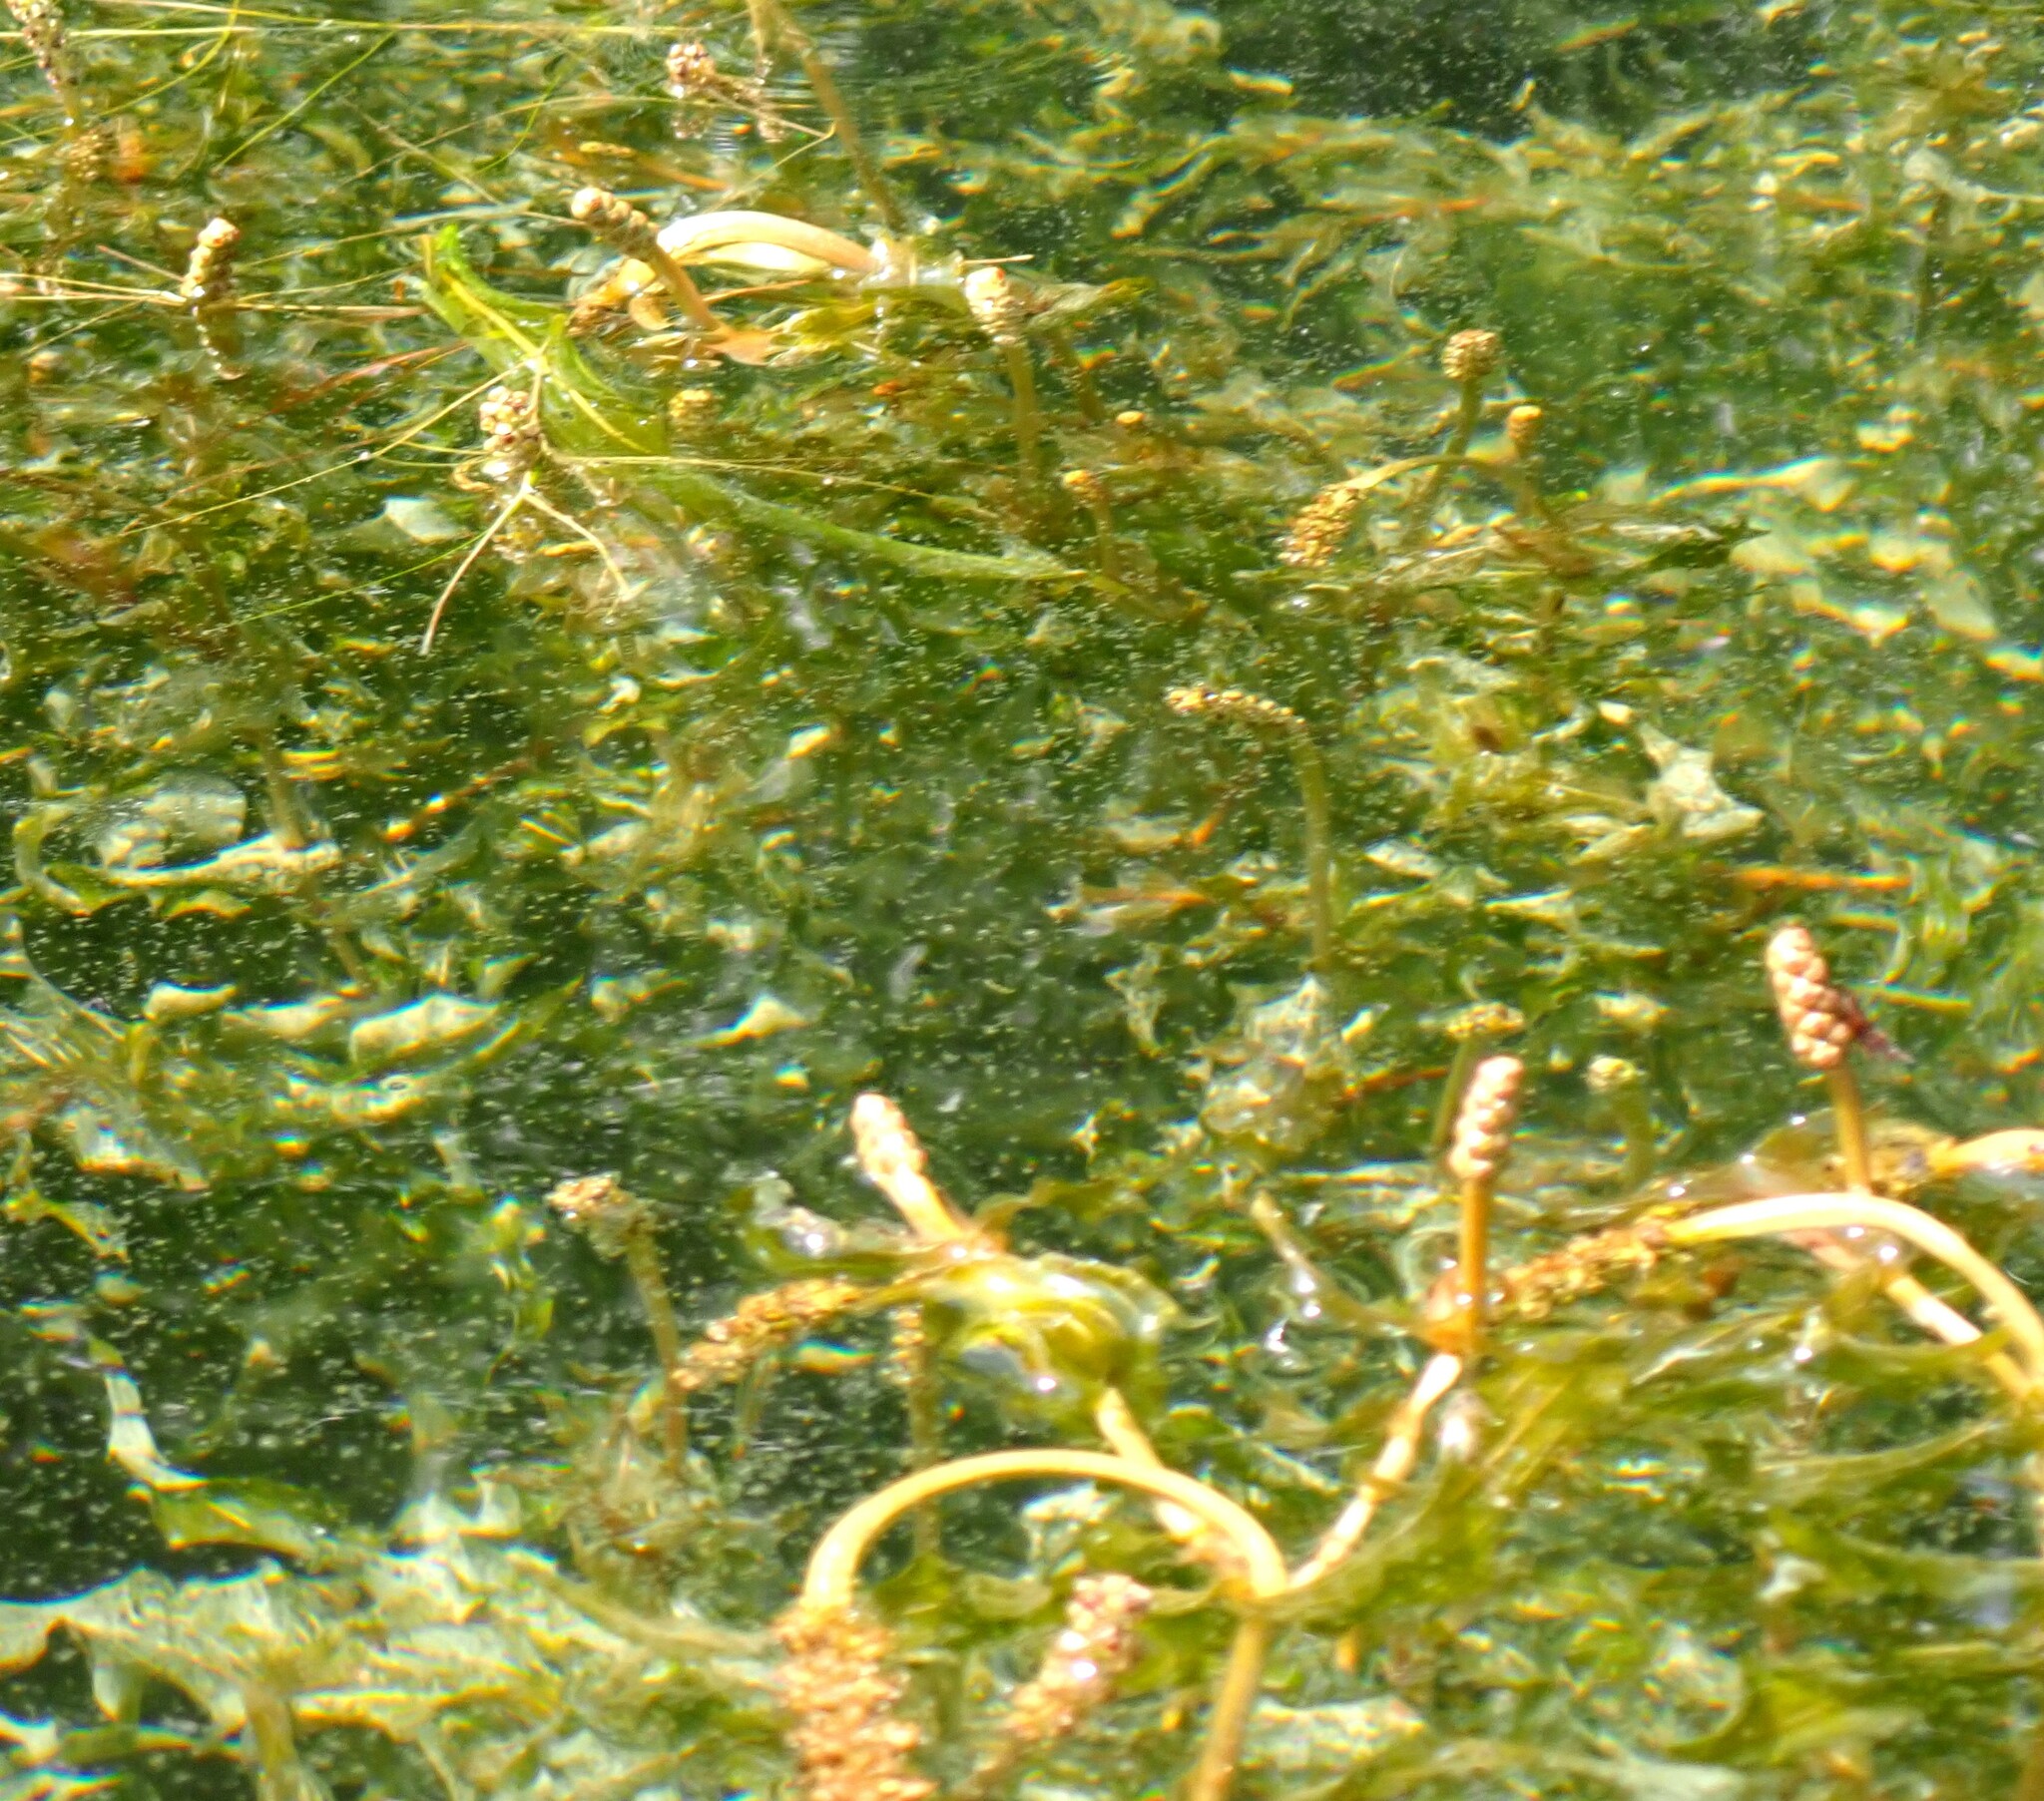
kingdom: Plantae
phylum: Tracheophyta
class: Liliopsida
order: Alismatales
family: Potamogetonaceae
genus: Potamogeton
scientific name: Potamogeton richardsonii
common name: Richardson's pondweed
